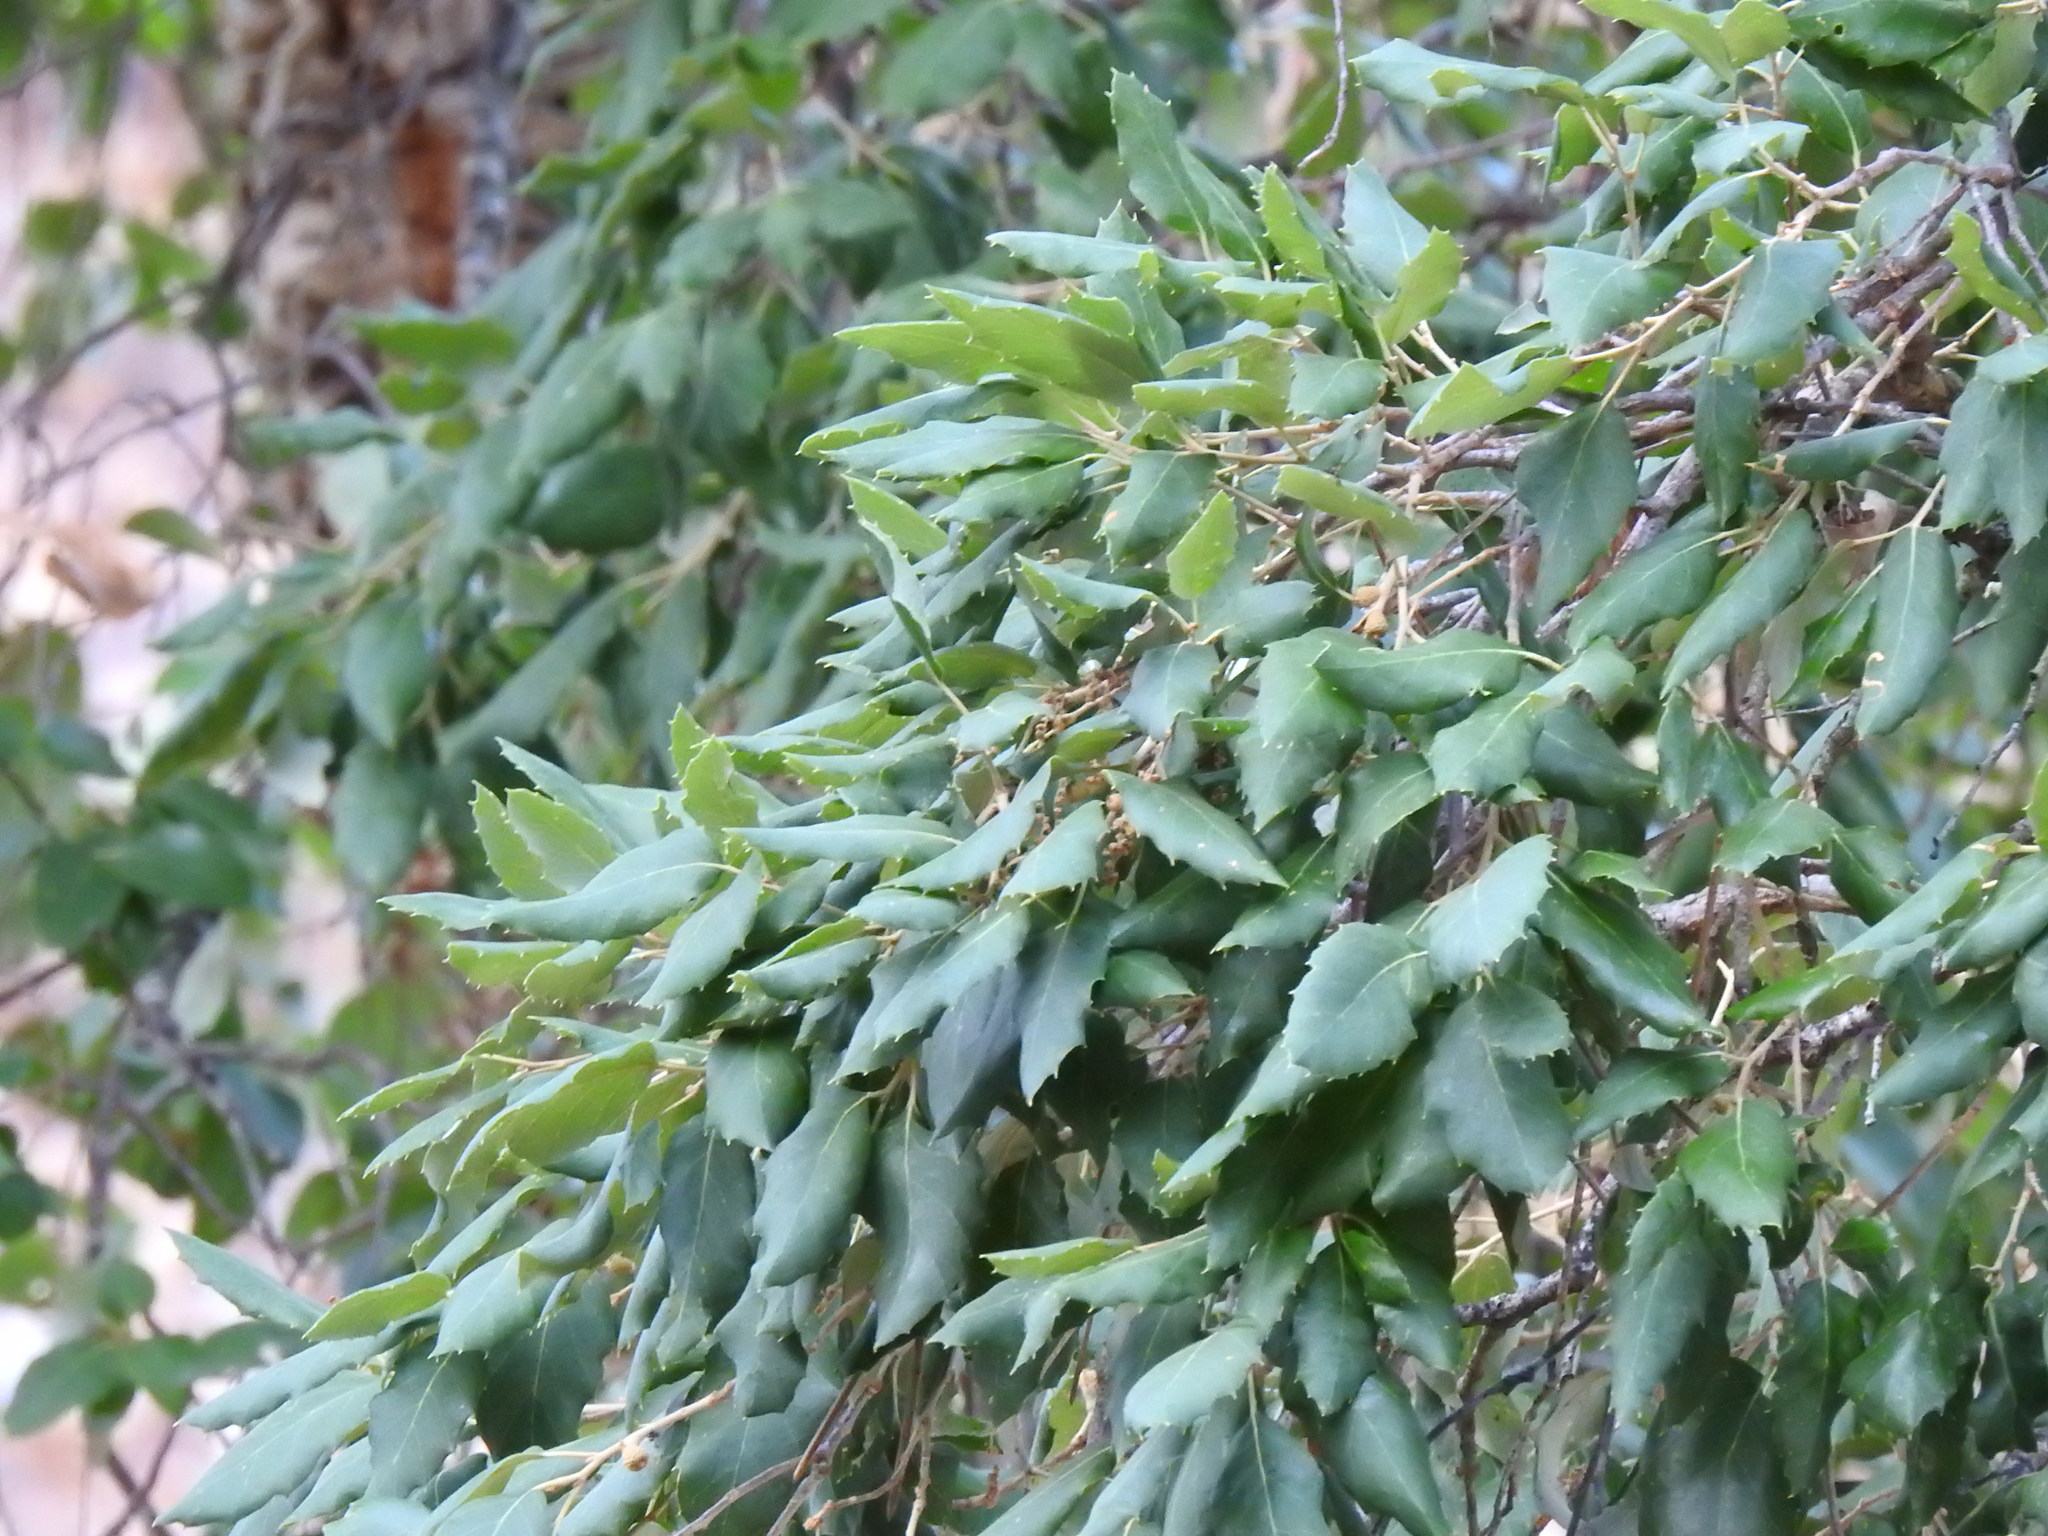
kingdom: Plantae
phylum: Tracheophyta
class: Magnoliopsida
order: Fagales
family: Fagaceae
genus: Quercus
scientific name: Quercus suber
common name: Cork oak
